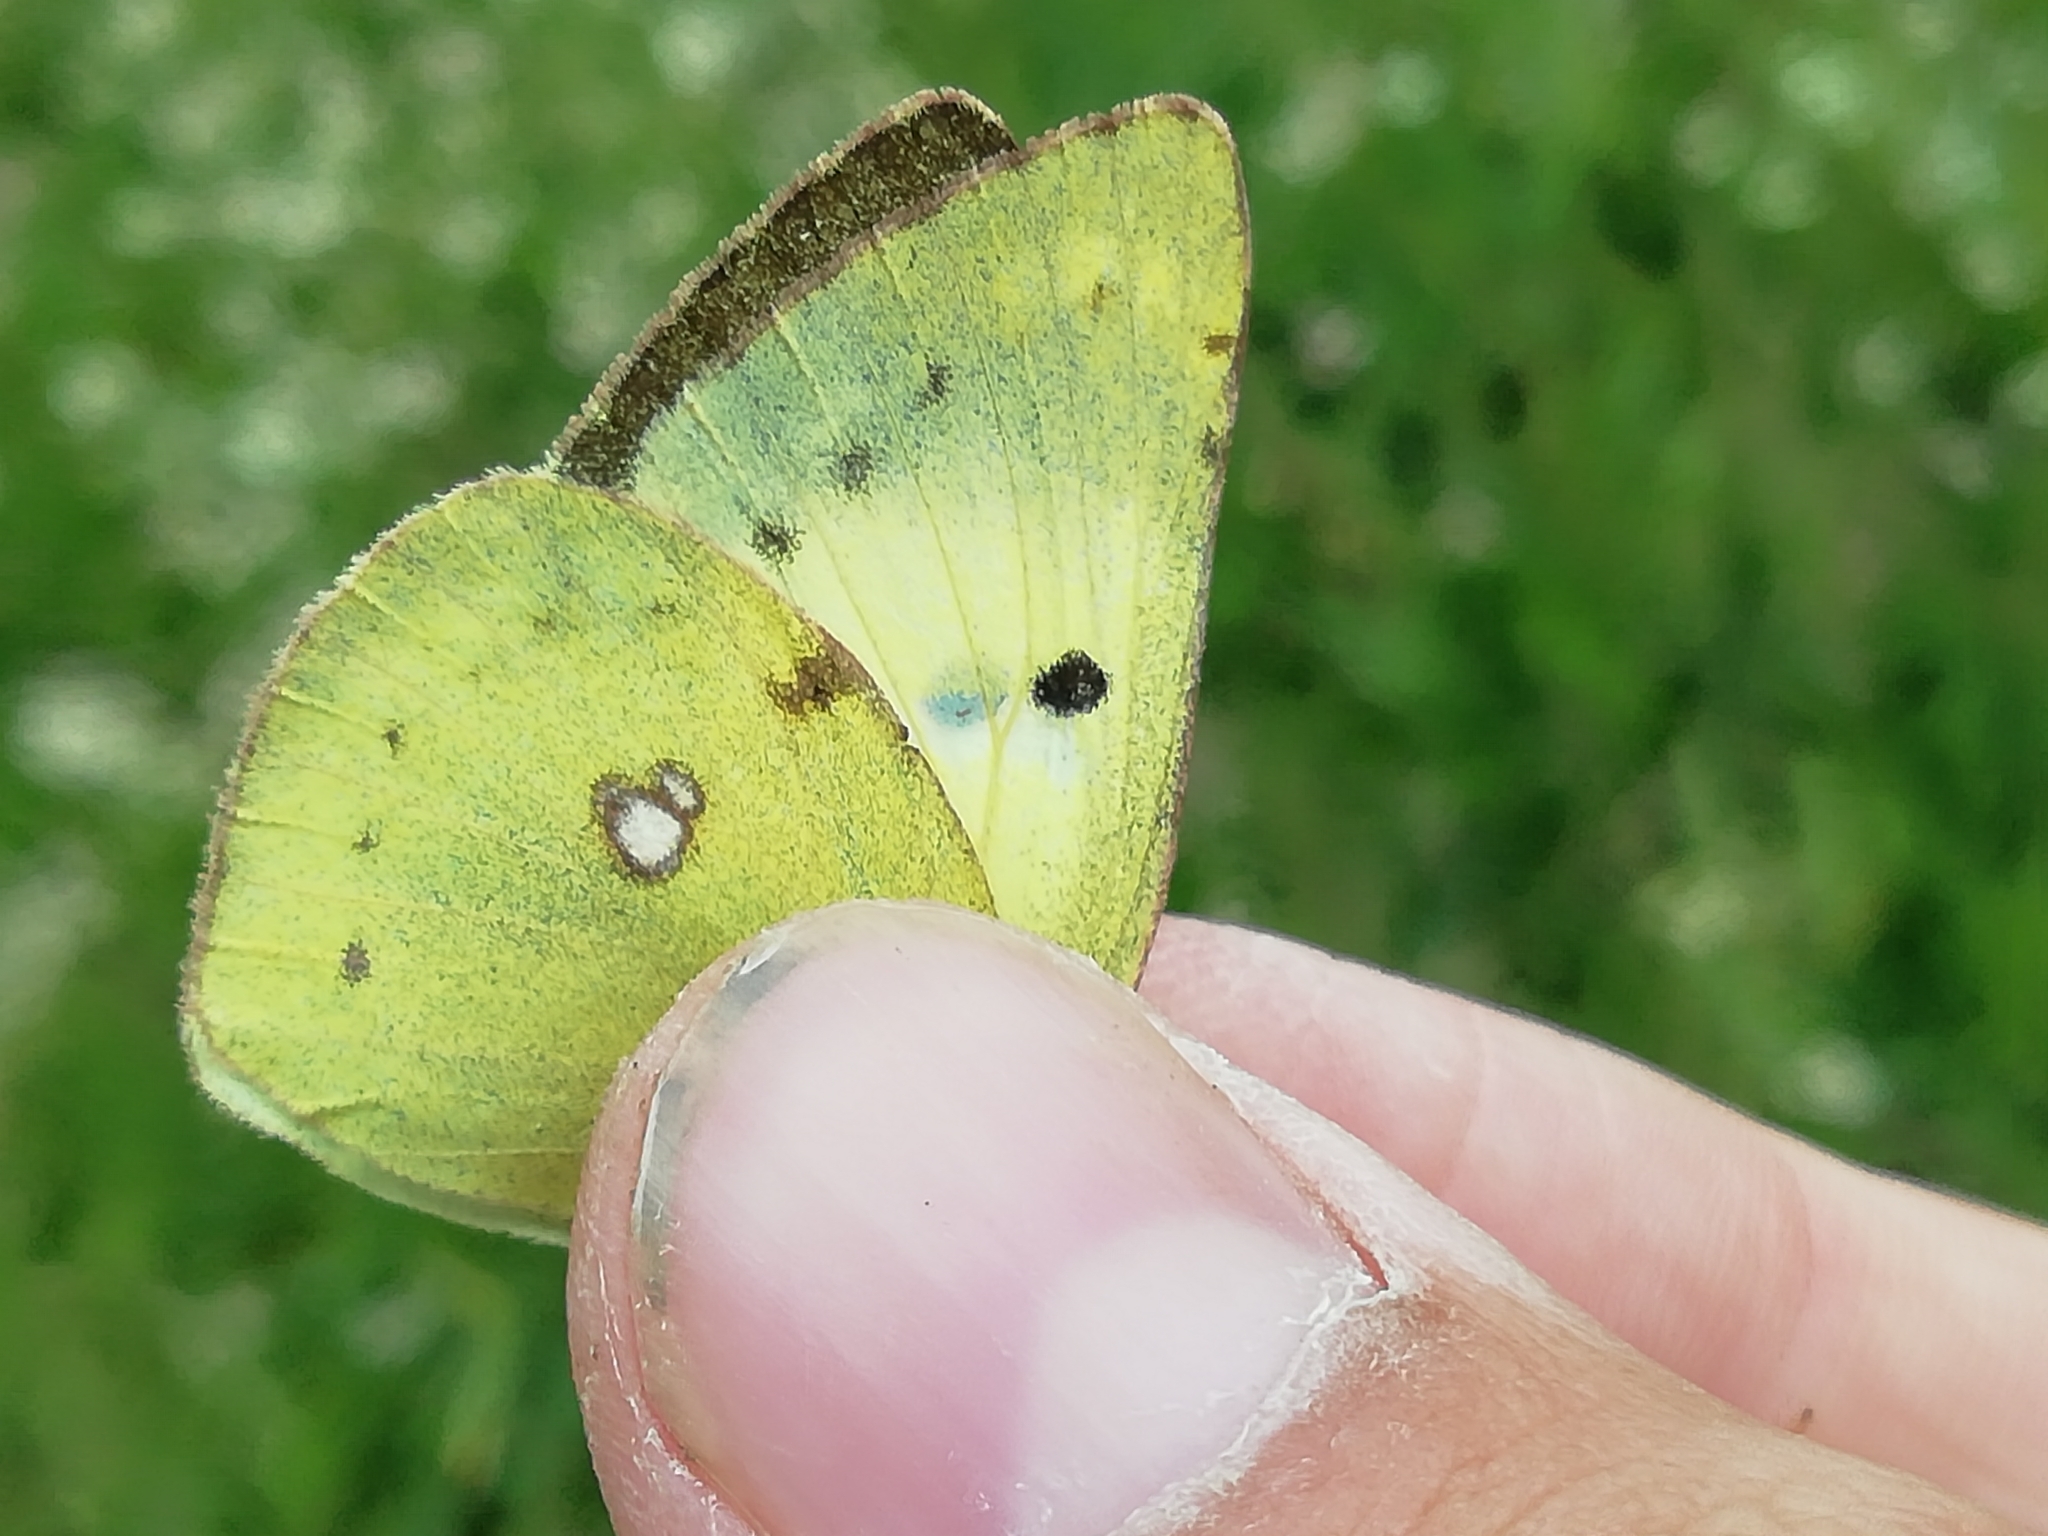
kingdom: Animalia
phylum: Arthropoda
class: Insecta
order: Lepidoptera
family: Pieridae
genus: Colias
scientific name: Colias hyale
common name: Pale clouded yellow
